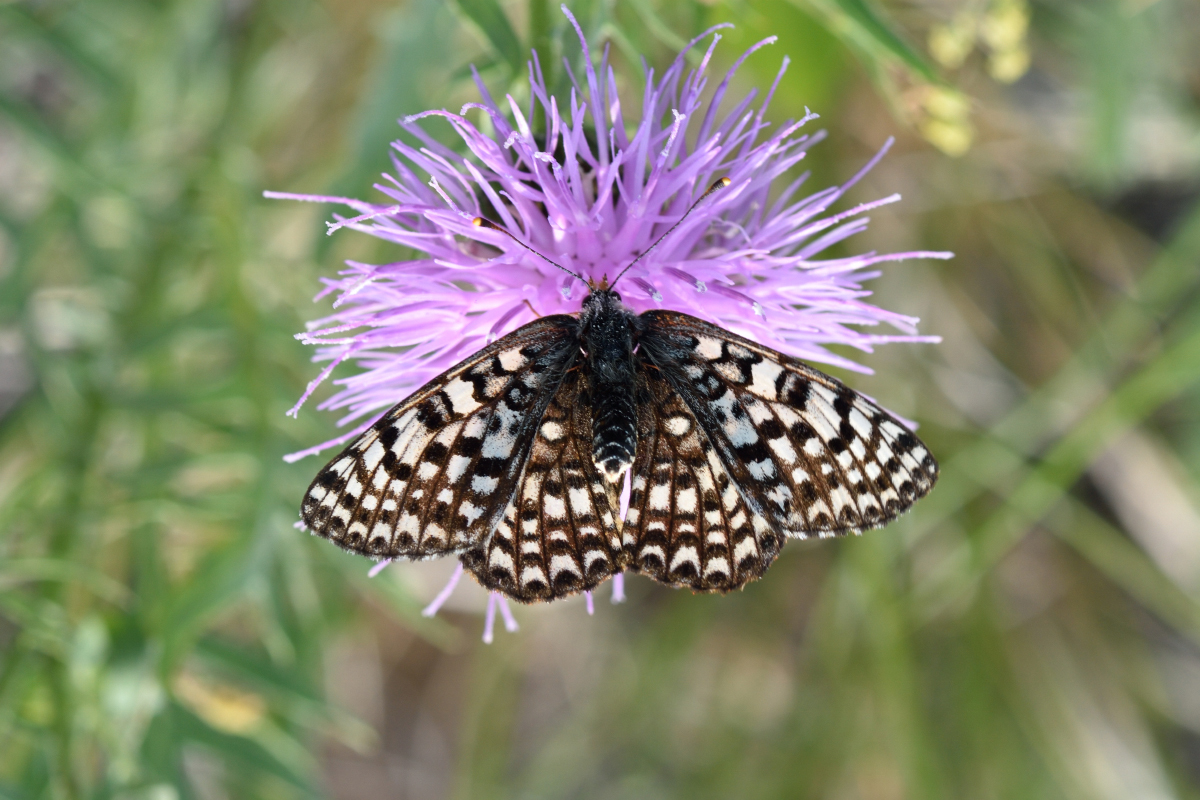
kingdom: Animalia
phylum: Arthropoda
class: Insecta
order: Lepidoptera
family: Nymphalidae
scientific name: Nymphalidae
